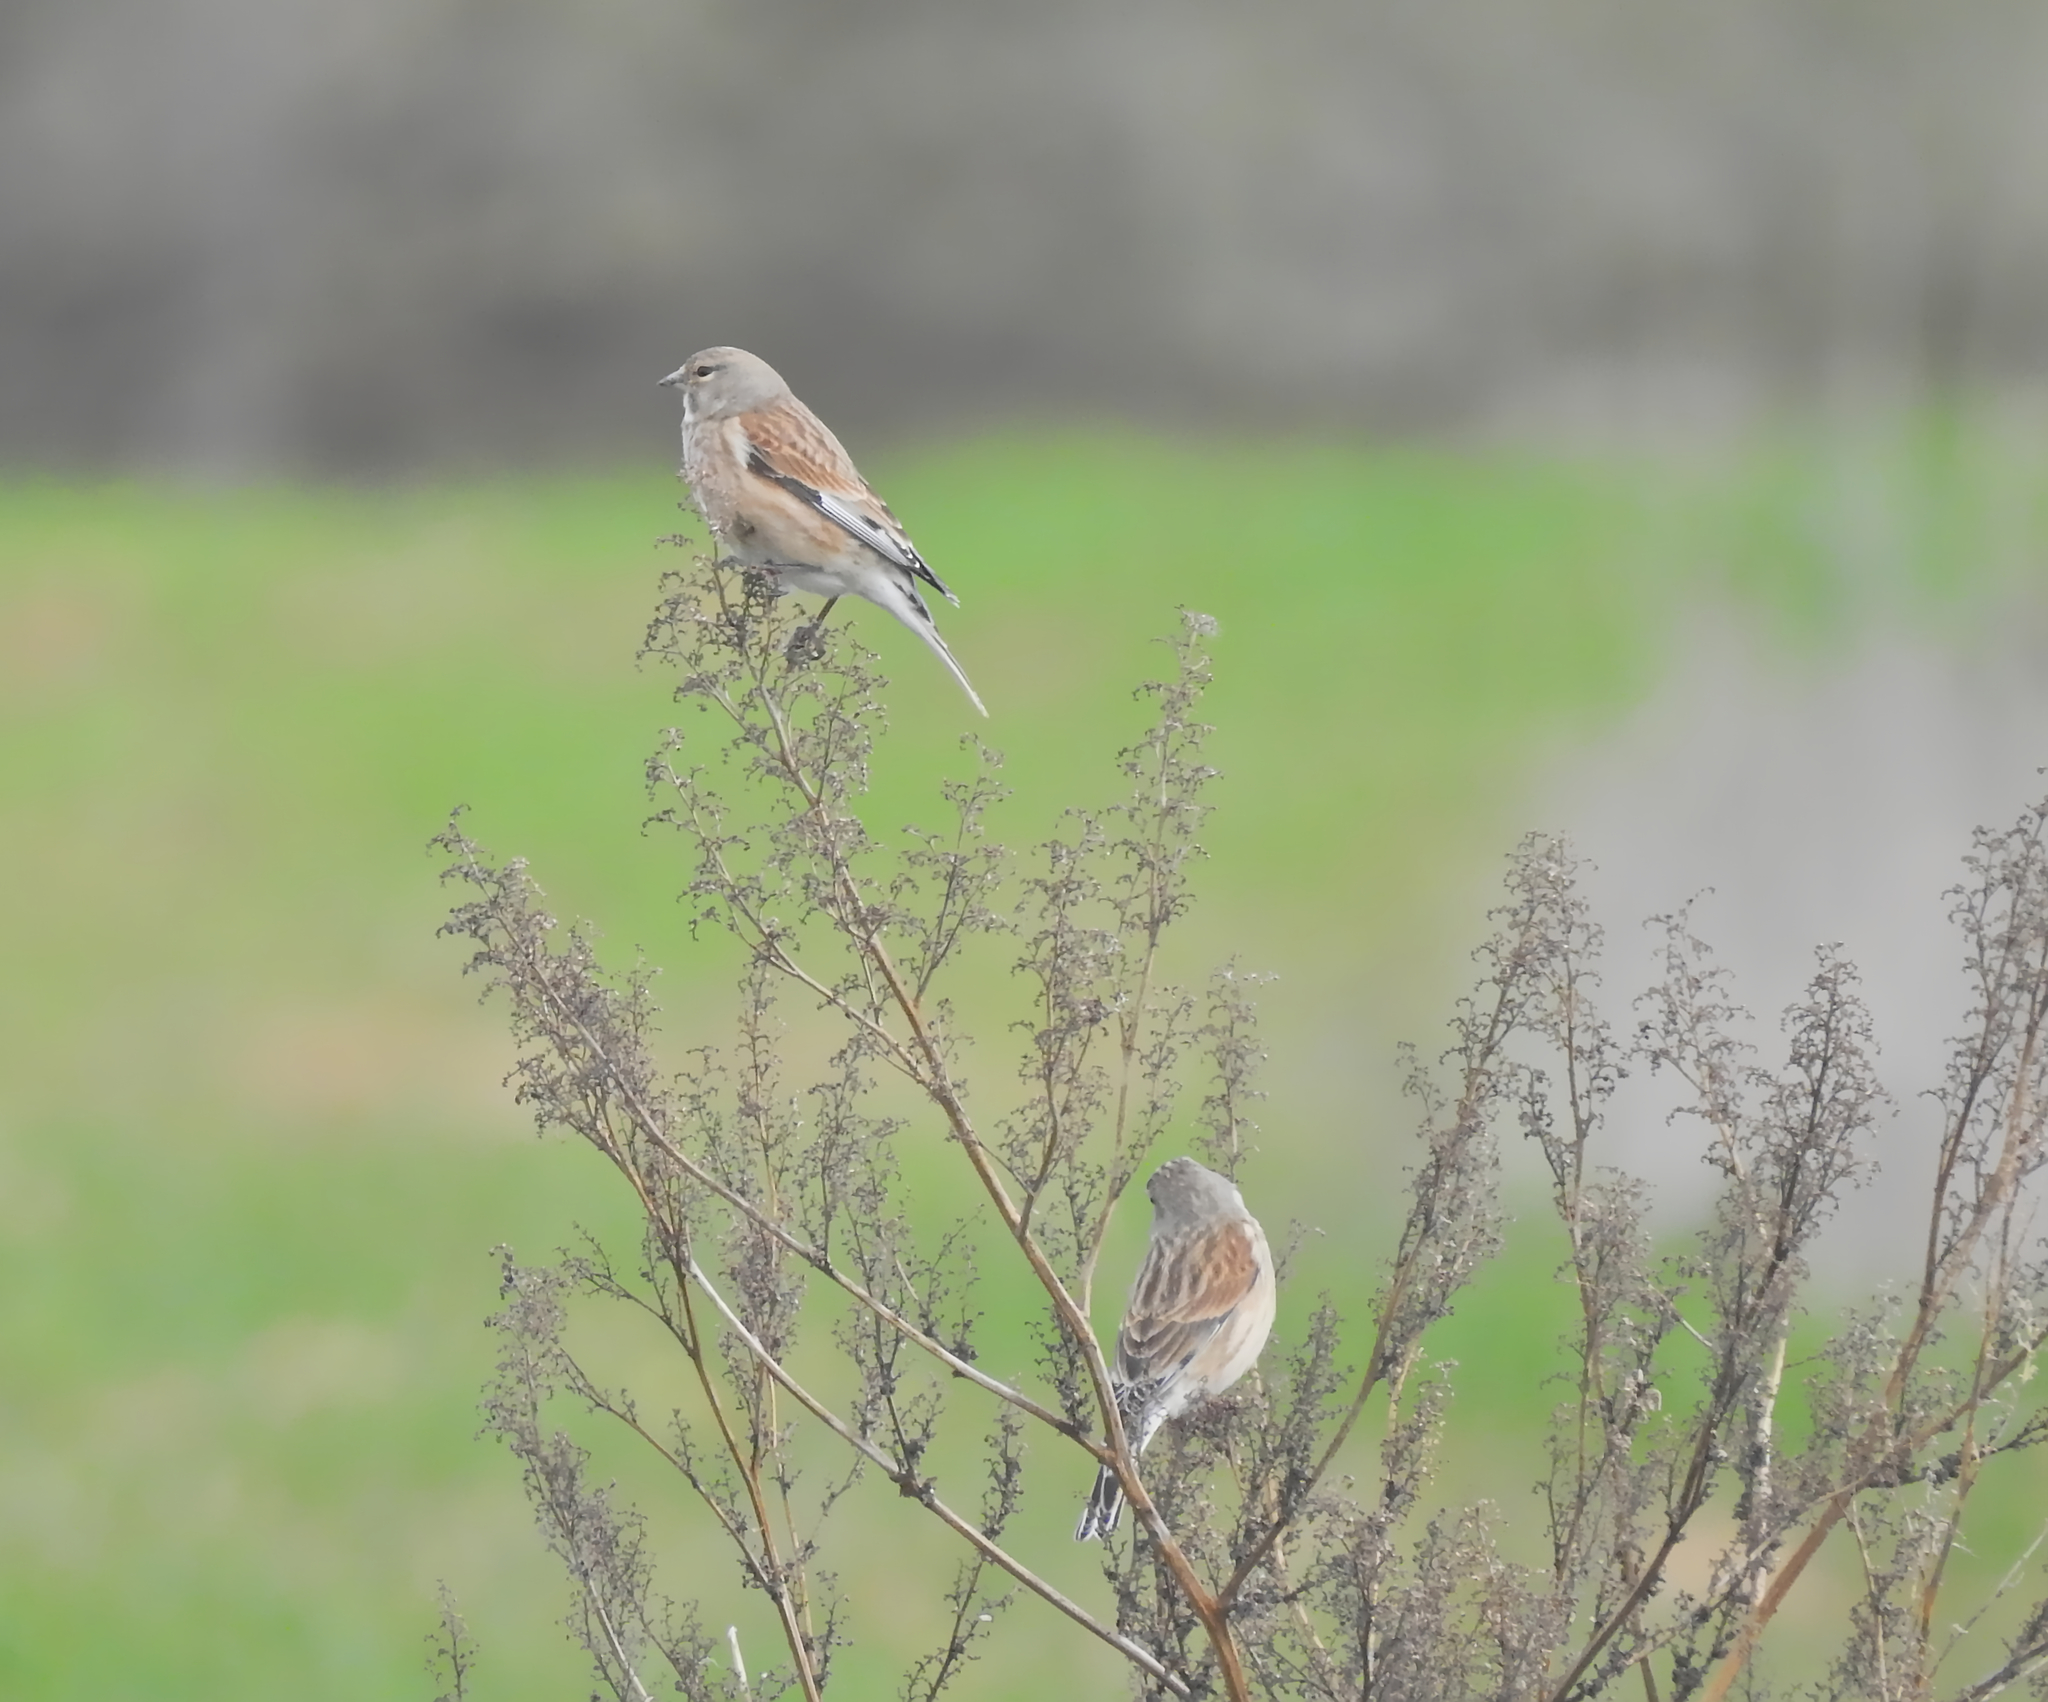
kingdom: Animalia
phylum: Chordata
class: Aves
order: Passeriformes
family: Fringillidae
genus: Linaria
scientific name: Linaria cannabina
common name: Common linnet
